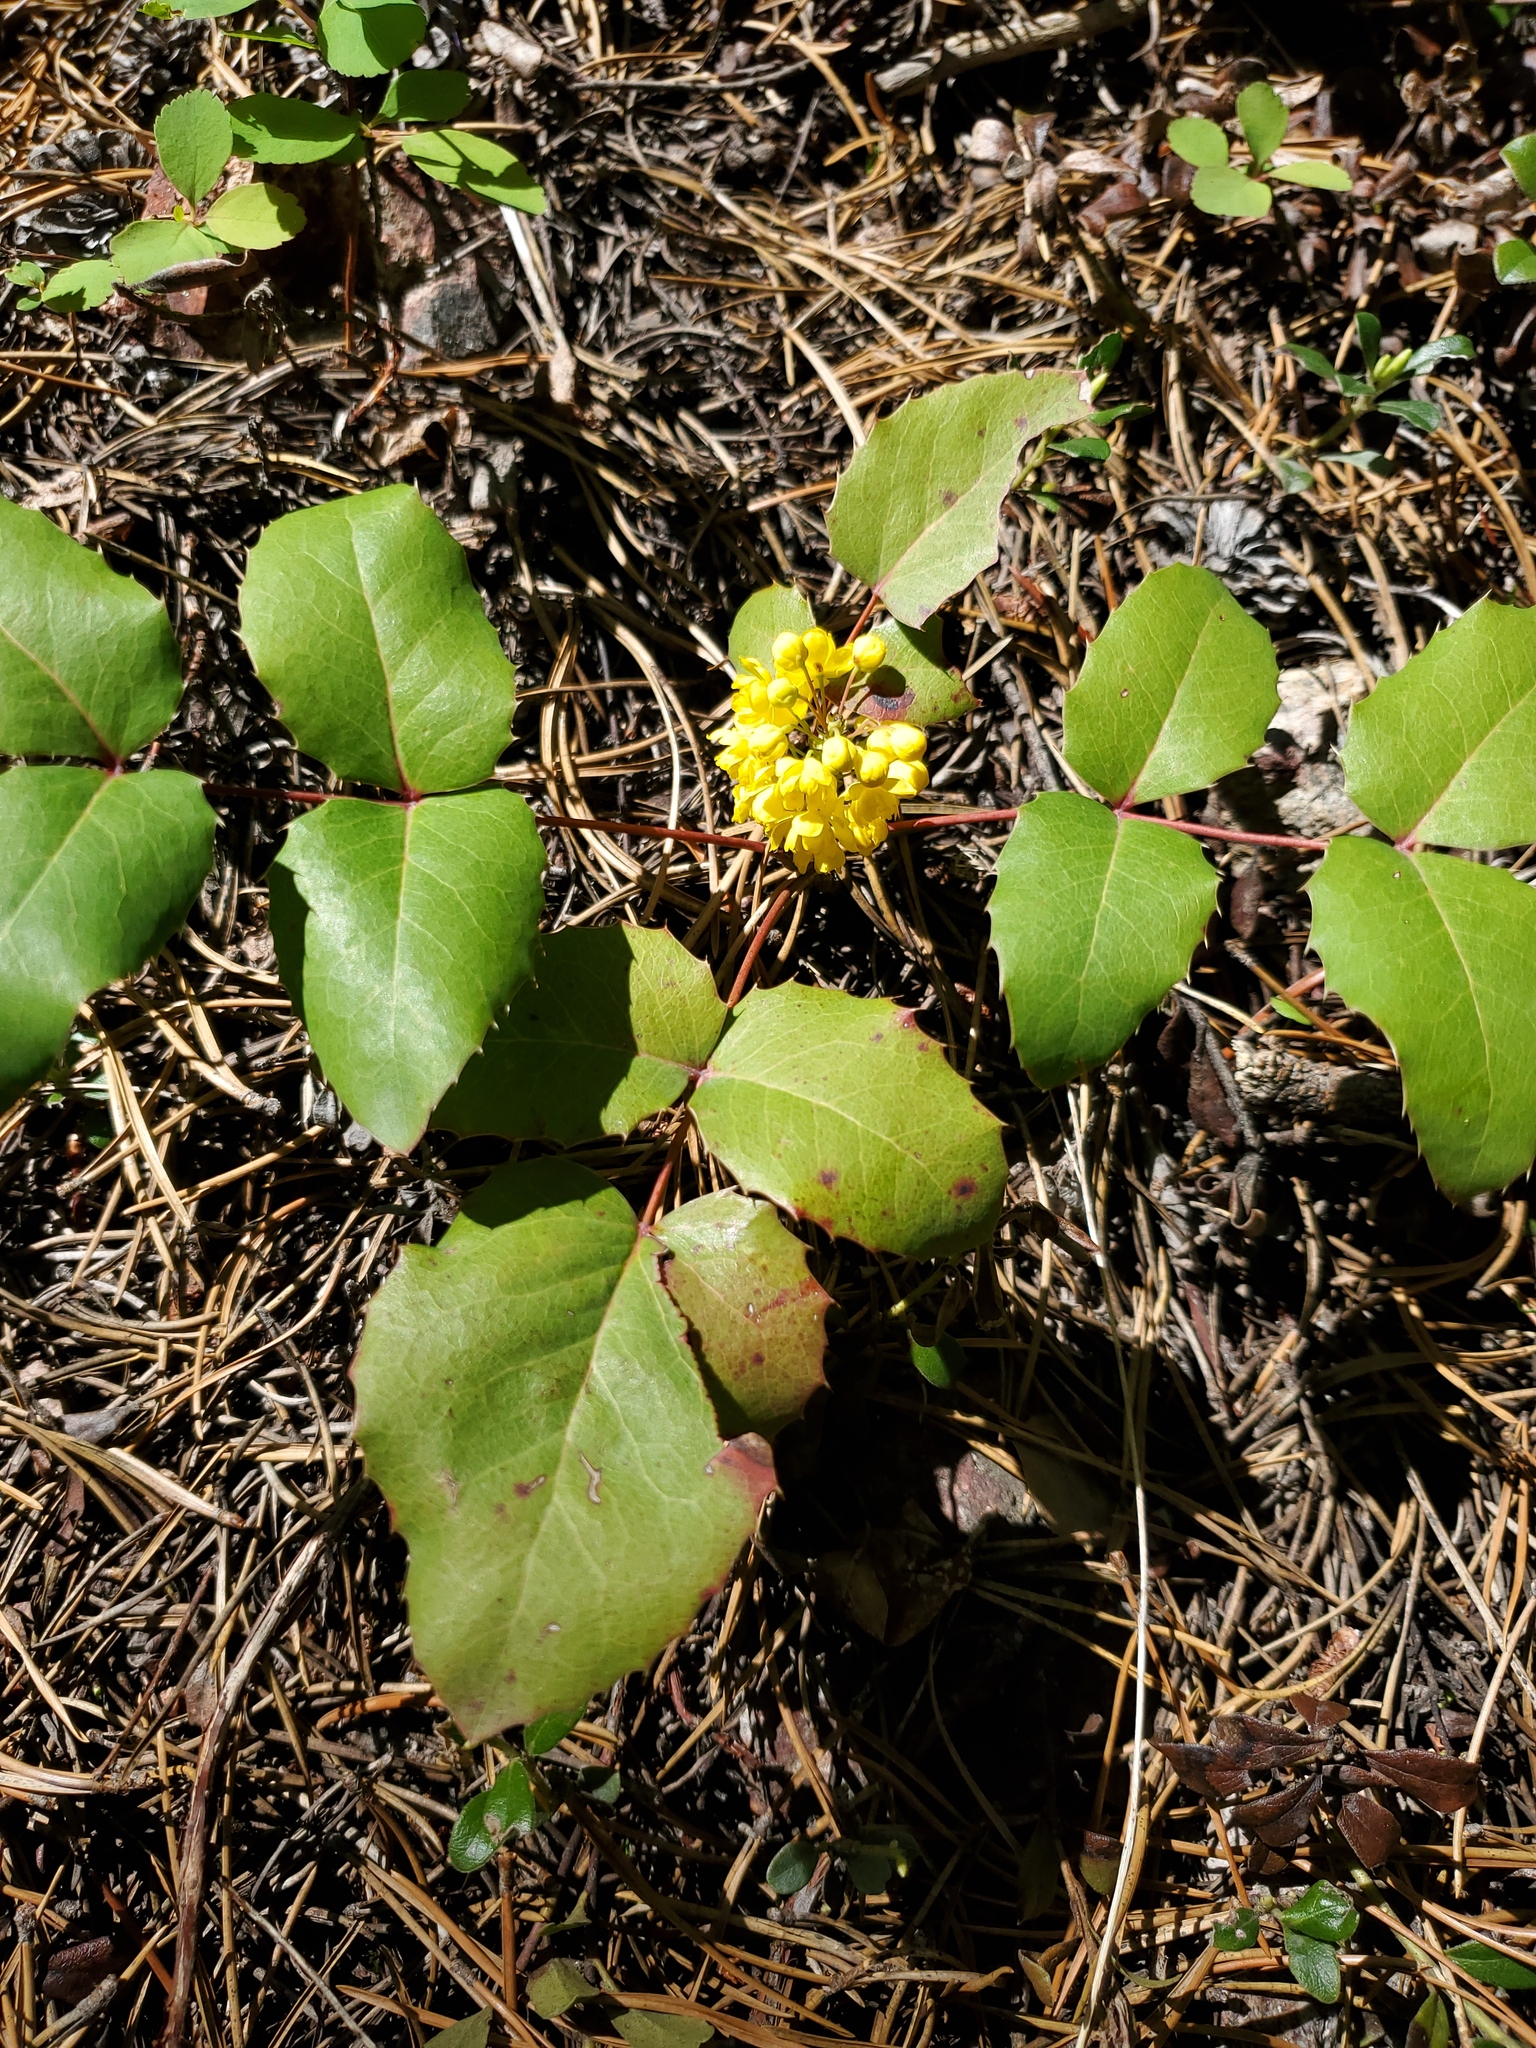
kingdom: Plantae
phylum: Tracheophyta
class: Magnoliopsida
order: Ranunculales
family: Berberidaceae
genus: Mahonia
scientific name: Mahonia repens
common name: Creeping oregon-grape
